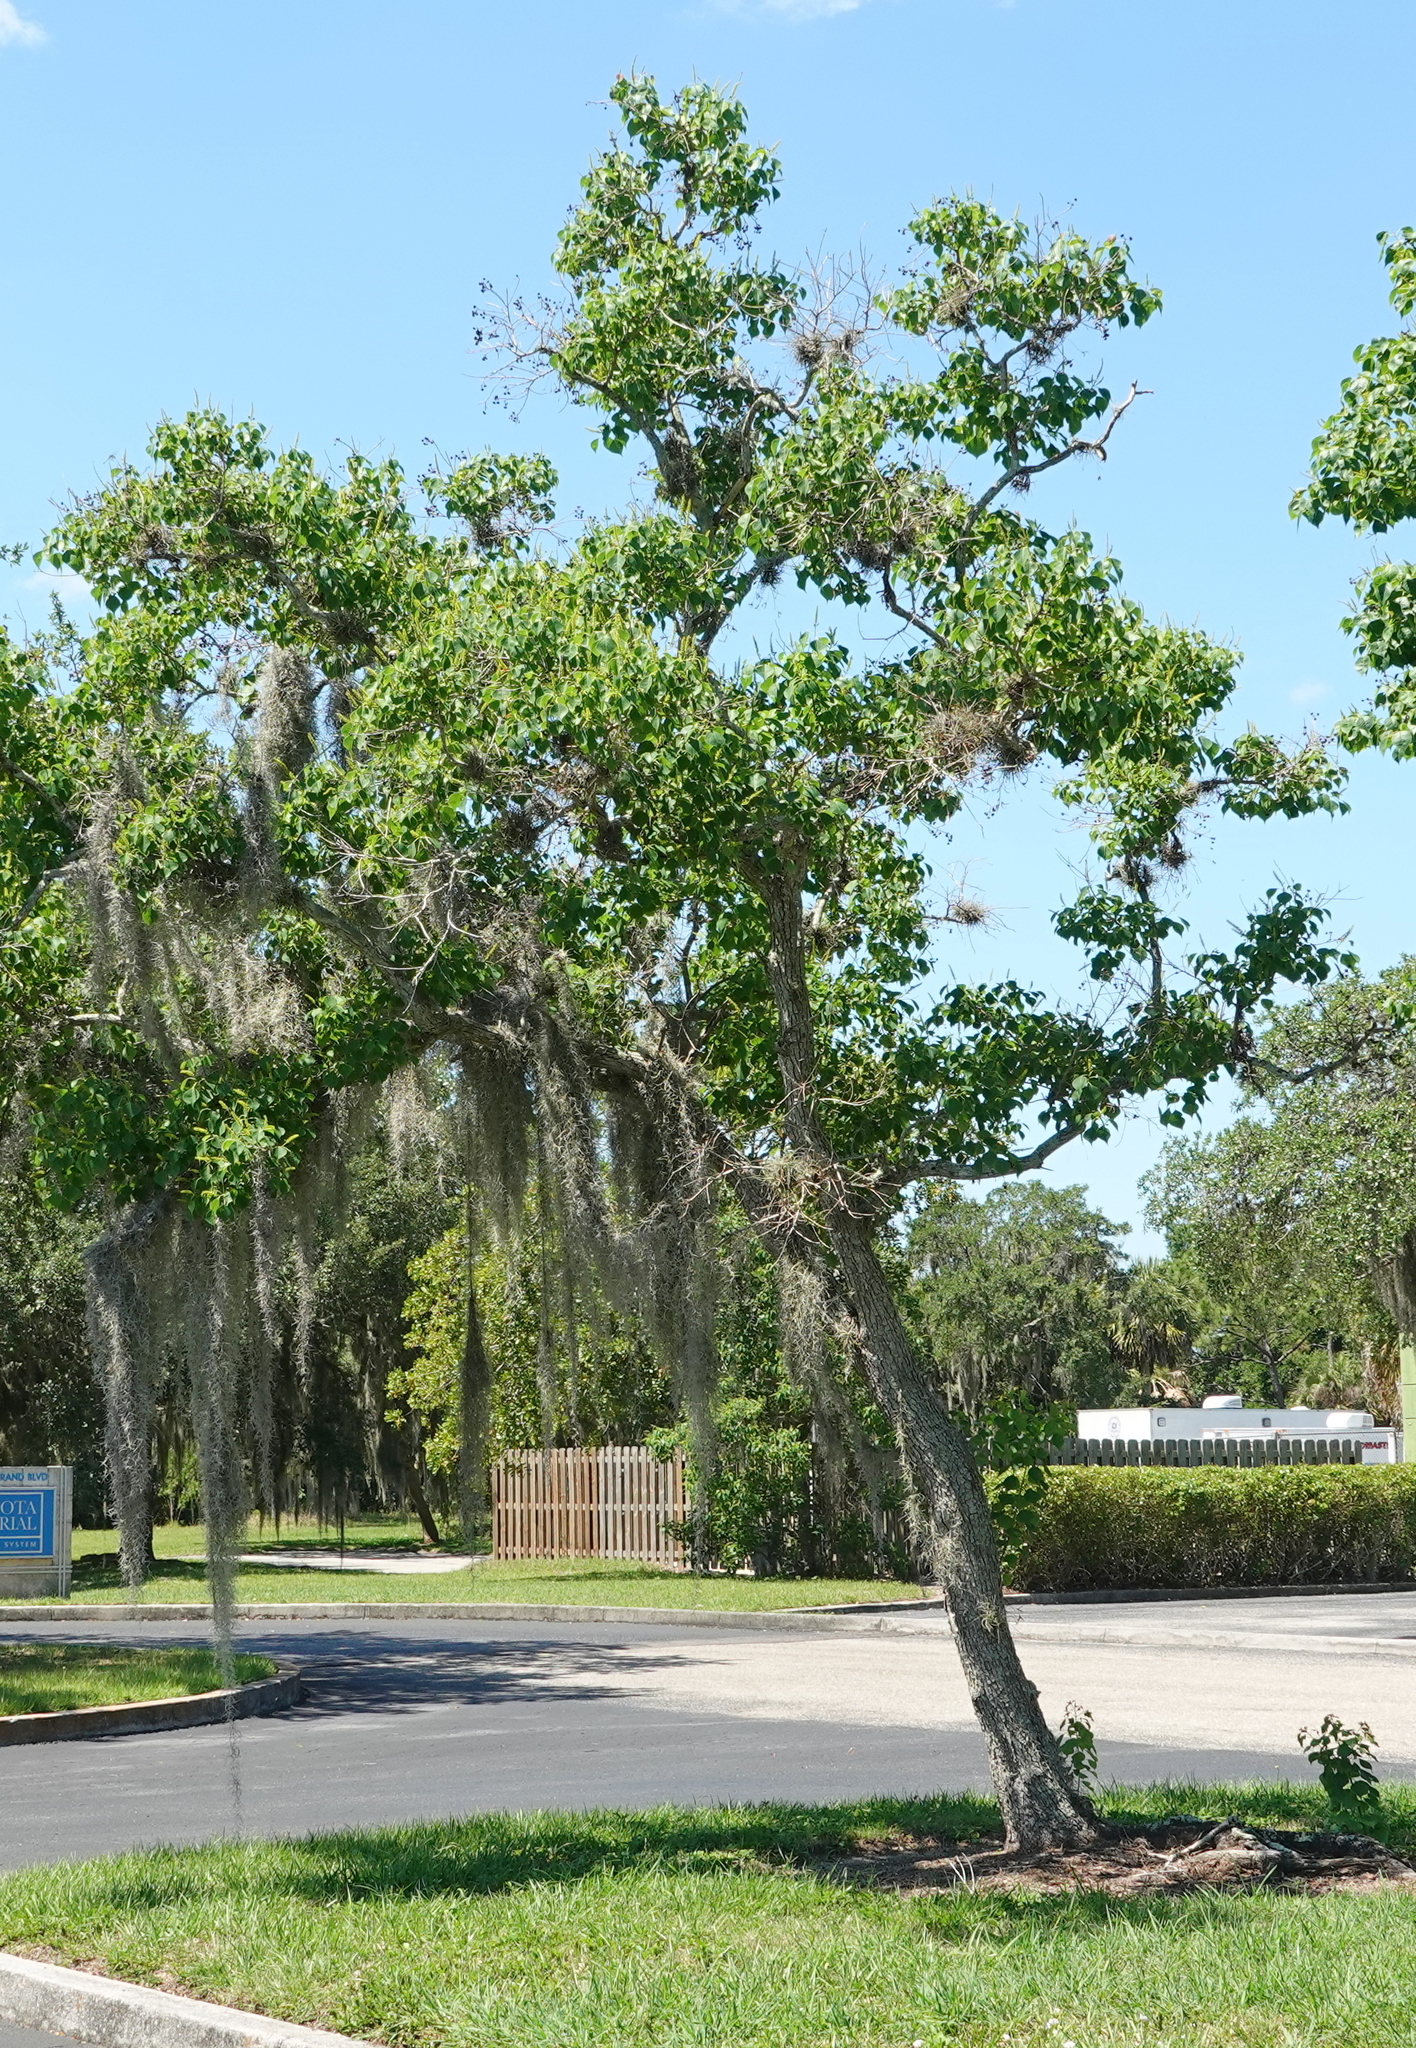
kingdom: Plantae
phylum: Tracheophyta
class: Magnoliopsida
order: Malpighiales
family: Euphorbiaceae
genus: Triadica
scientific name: Triadica sebifera
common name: Chinese tallow
